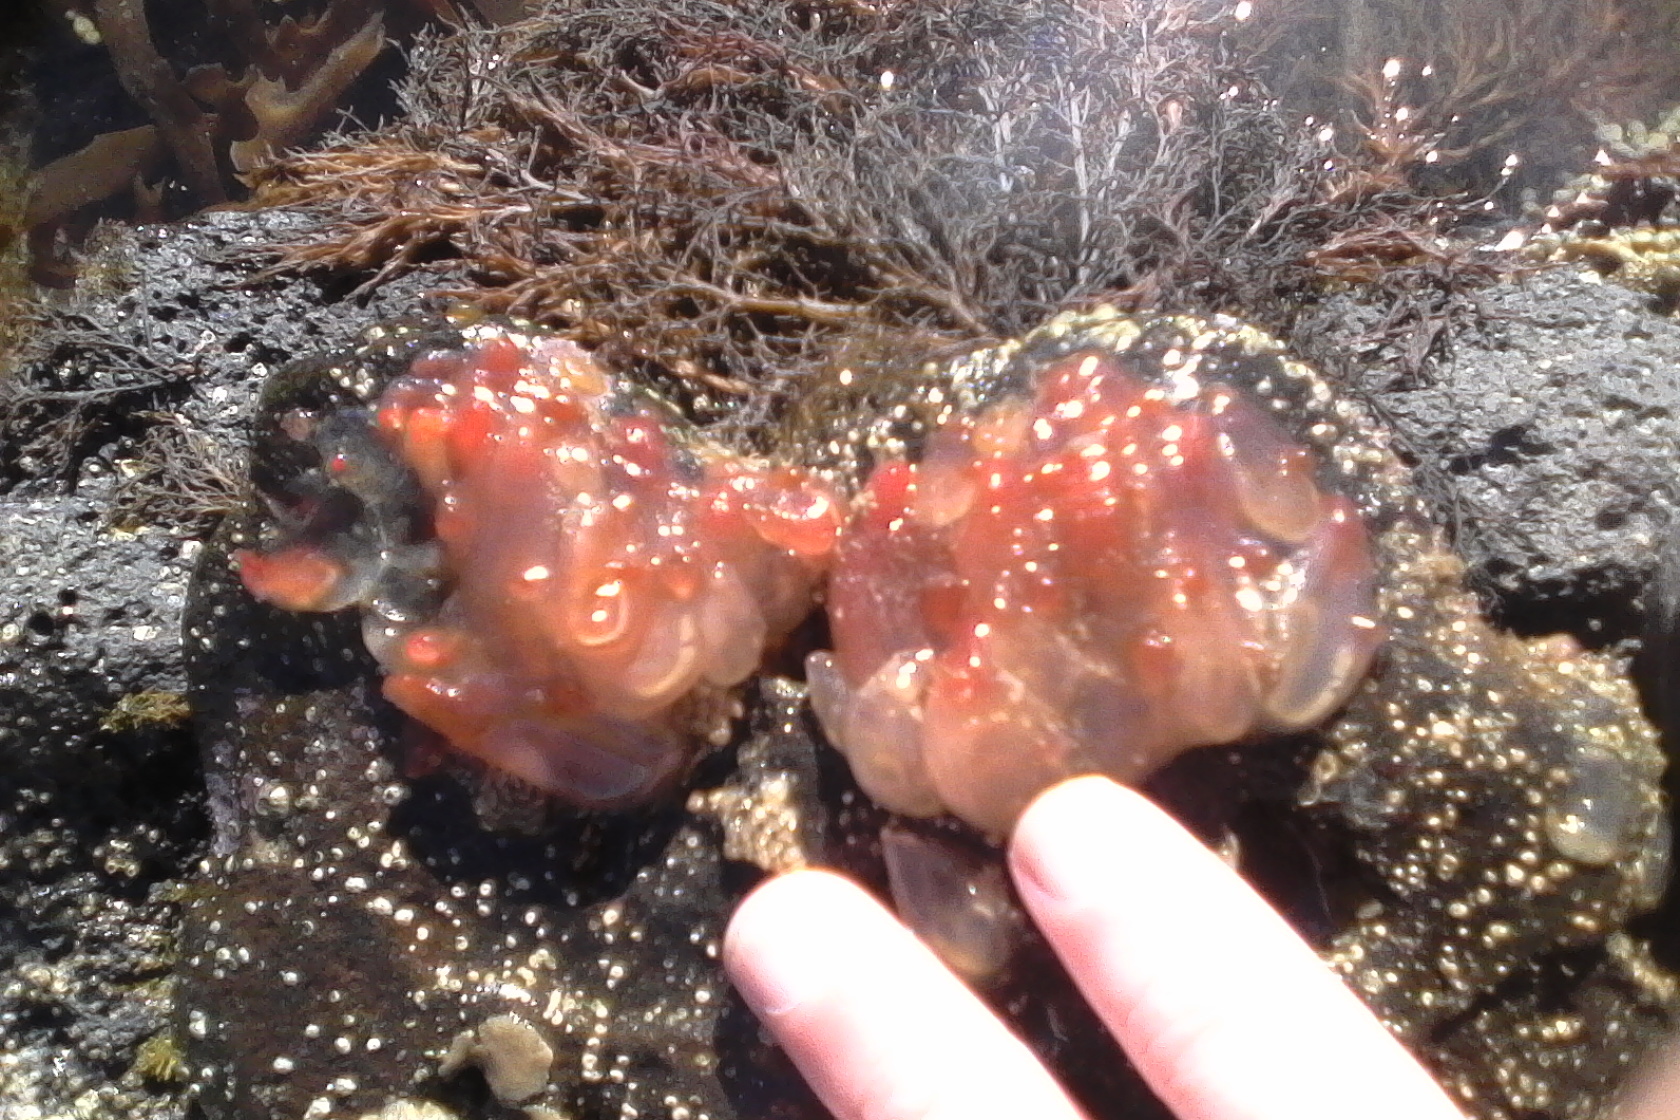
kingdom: Animalia
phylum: Chordata
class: Ascidiacea
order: Phlebobranchia
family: Corellidae
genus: Corella
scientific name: Corella eumyota
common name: Orange-tipped sea squirt
